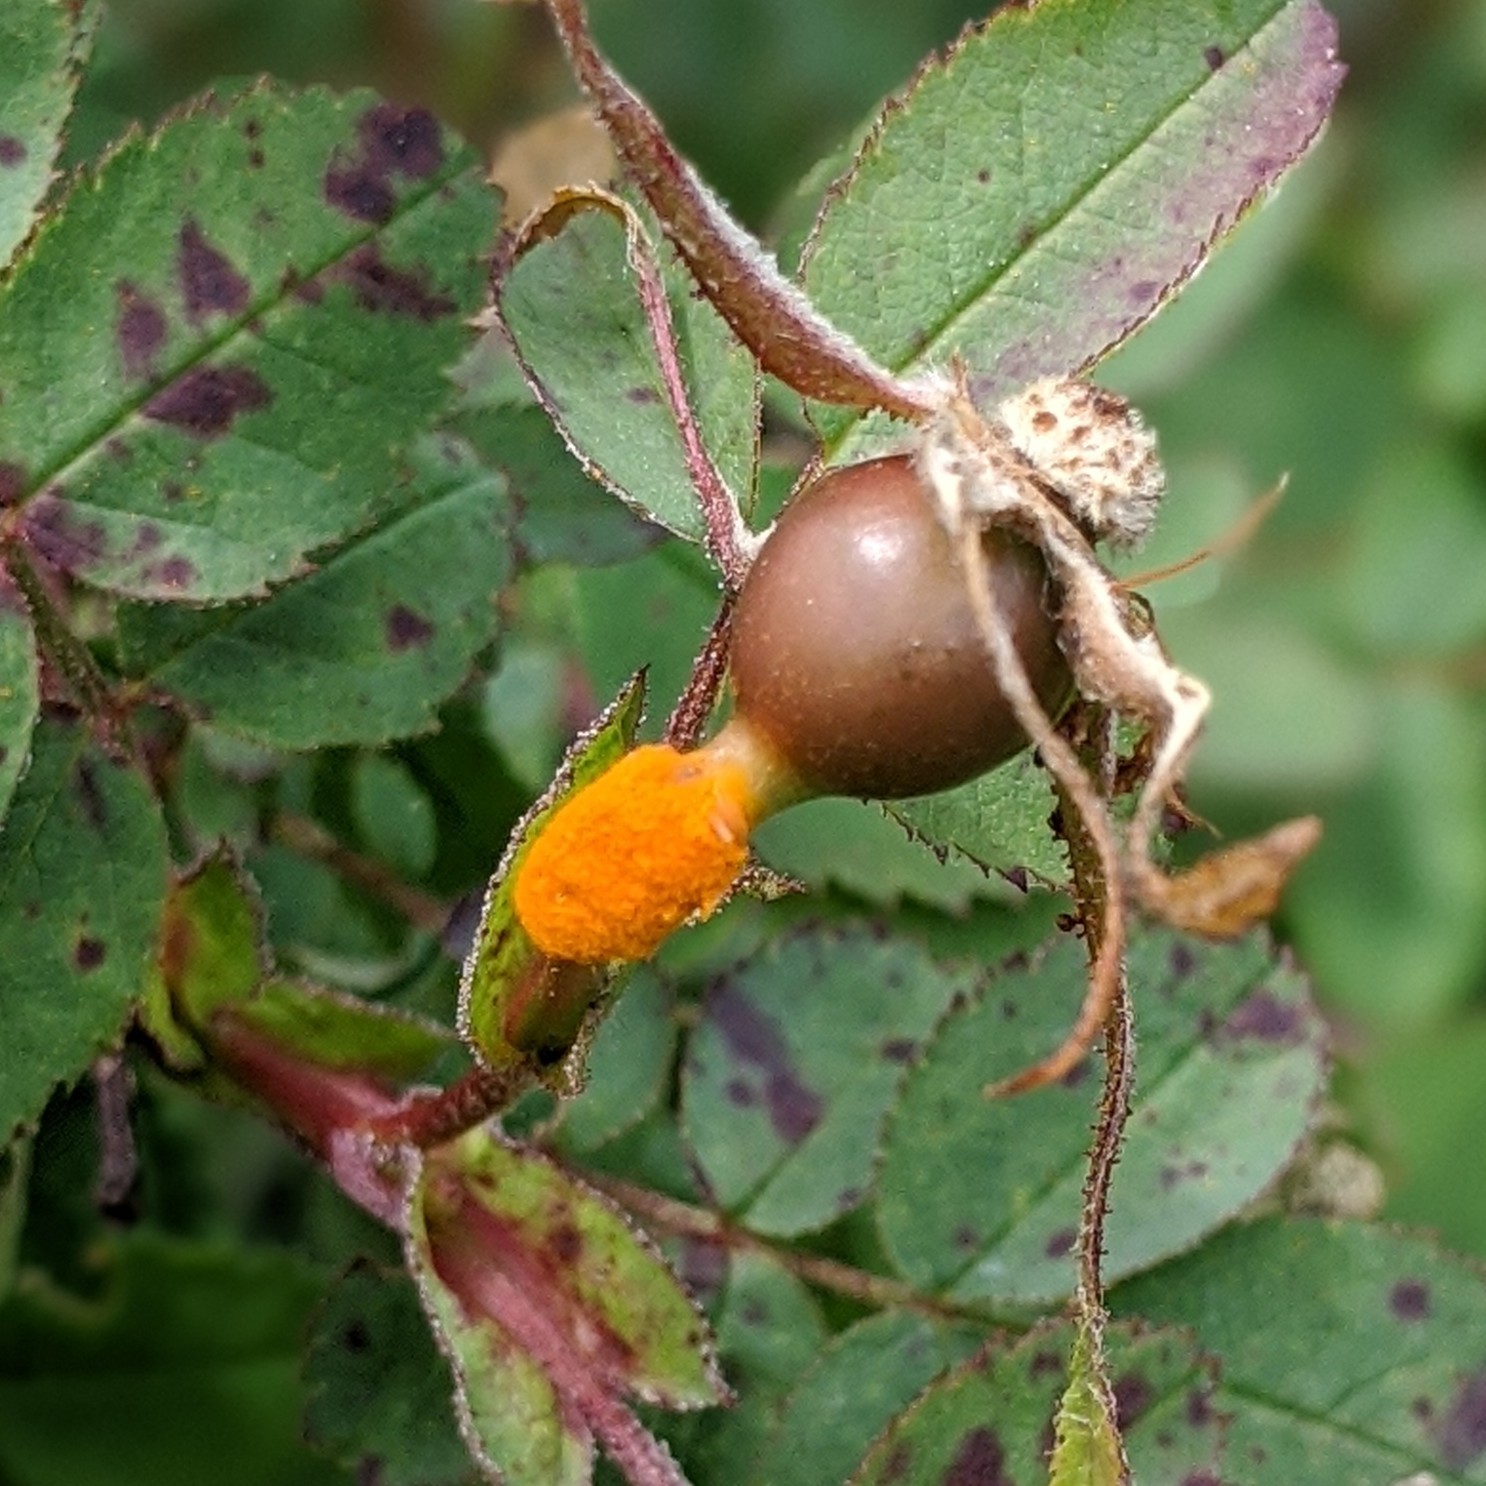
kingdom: Fungi
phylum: Basidiomycota
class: Pucciniomycetes
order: Pucciniales
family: Phragmidiaceae
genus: Phragmidium
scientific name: Phragmidium rosae-pimpinellifoliae
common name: Burnet rose rust
